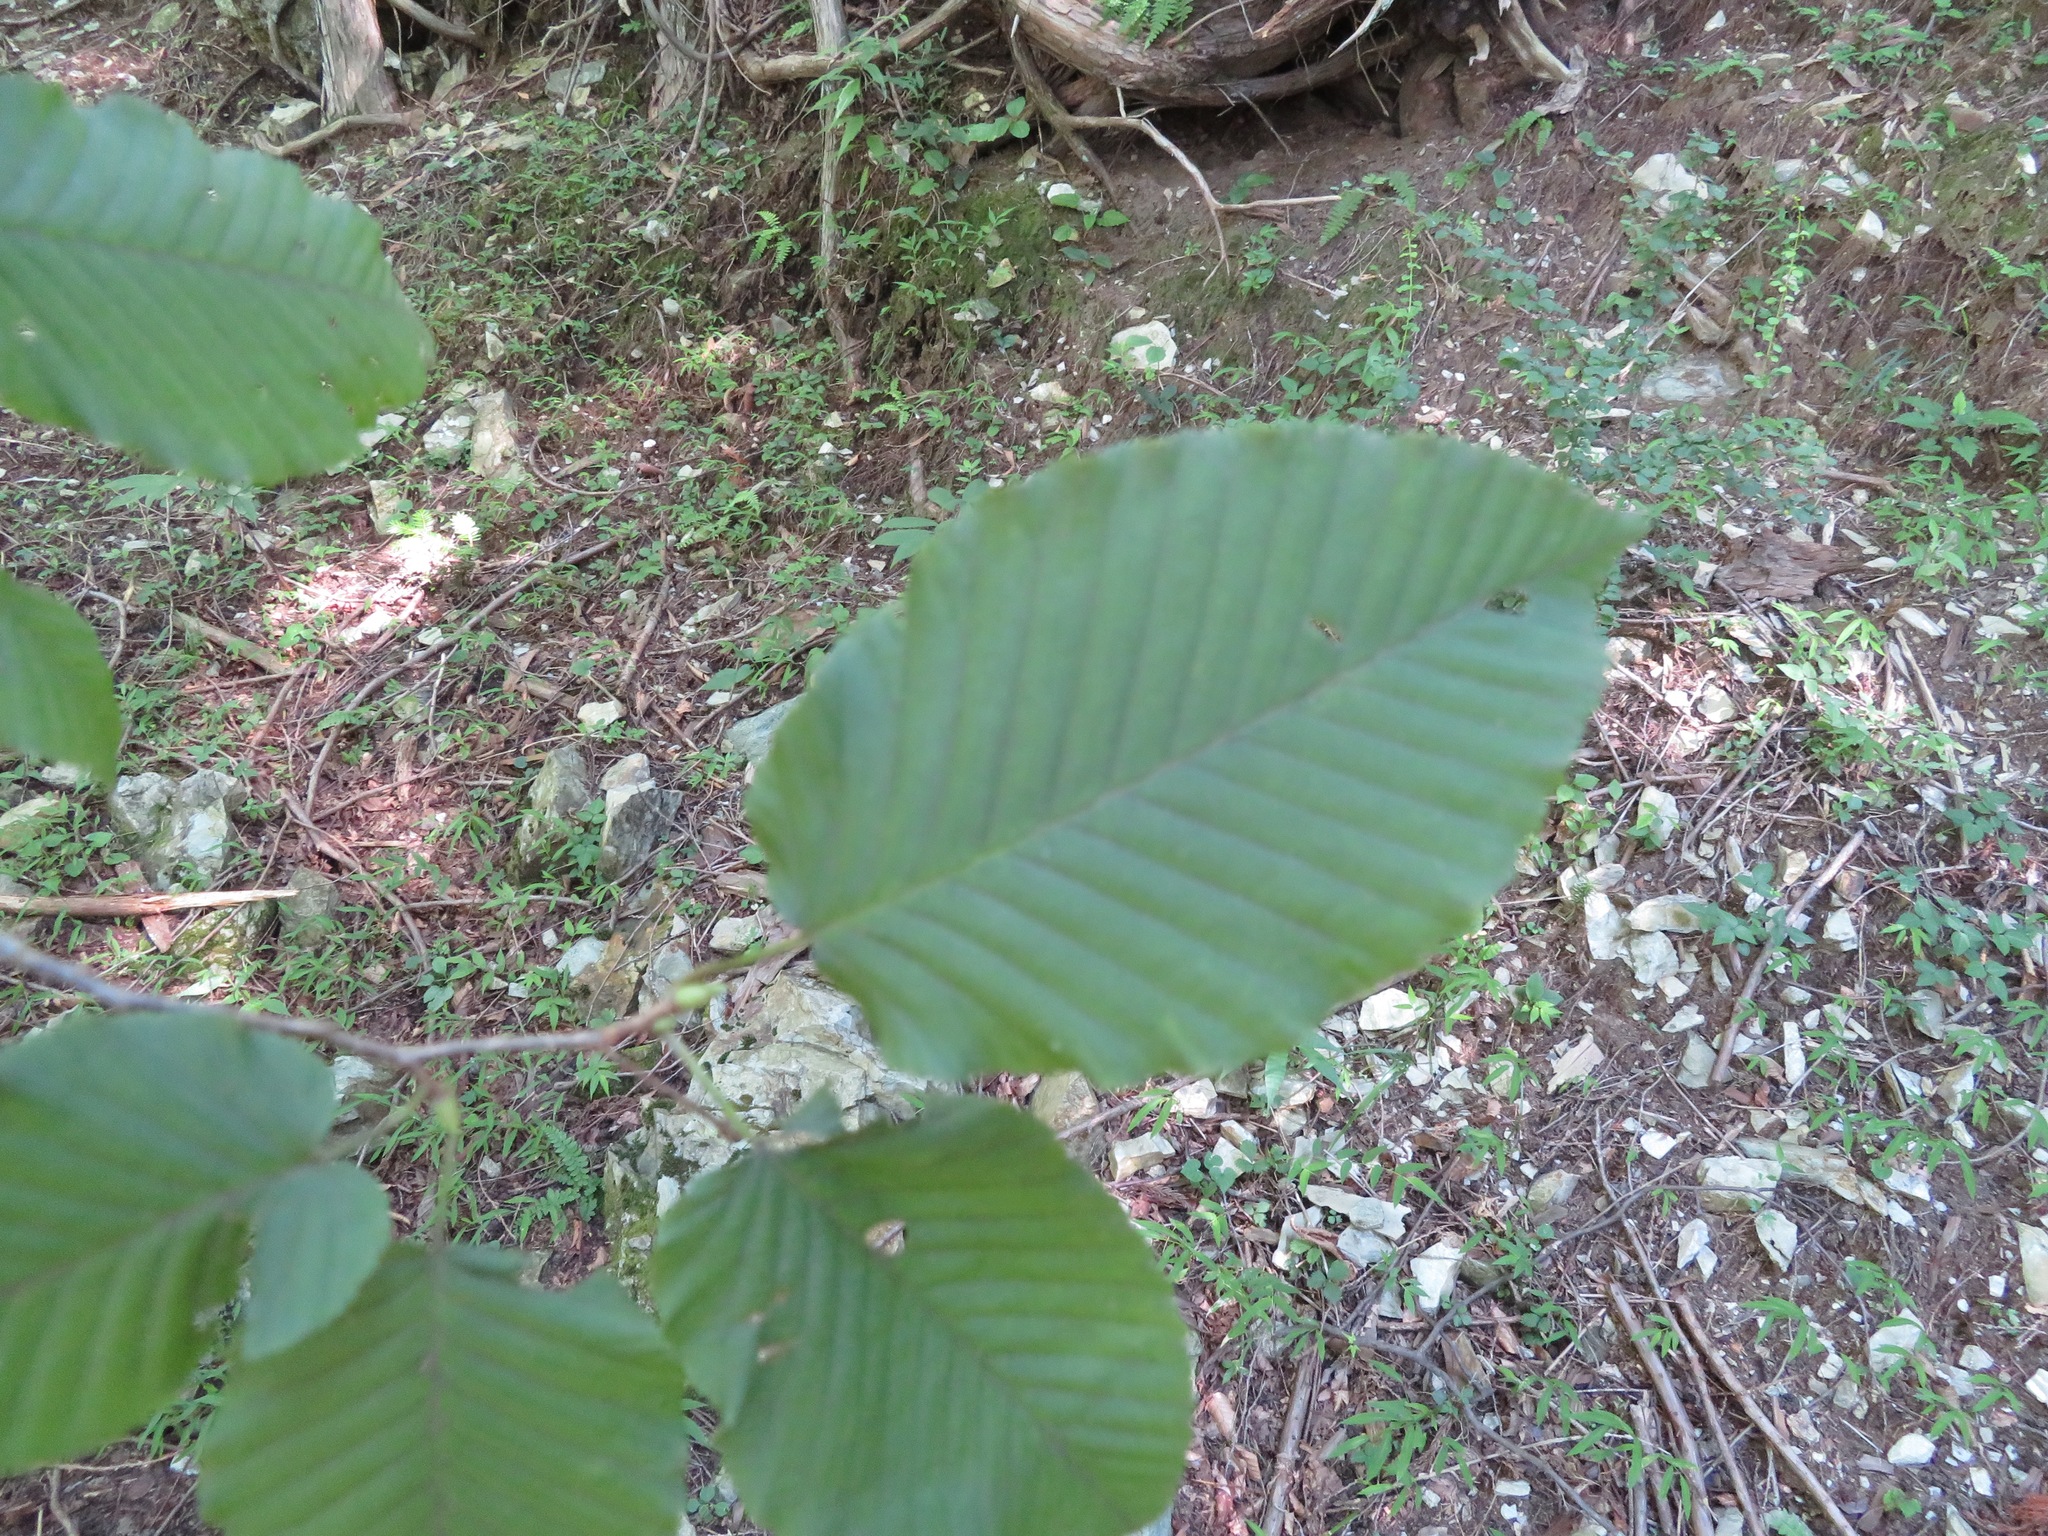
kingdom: Plantae
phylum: Tracheophyta
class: Magnoliopsida
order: Fagales
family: Betulaceae
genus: Betula
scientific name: Betula grossa
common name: Japanese cherry birch
